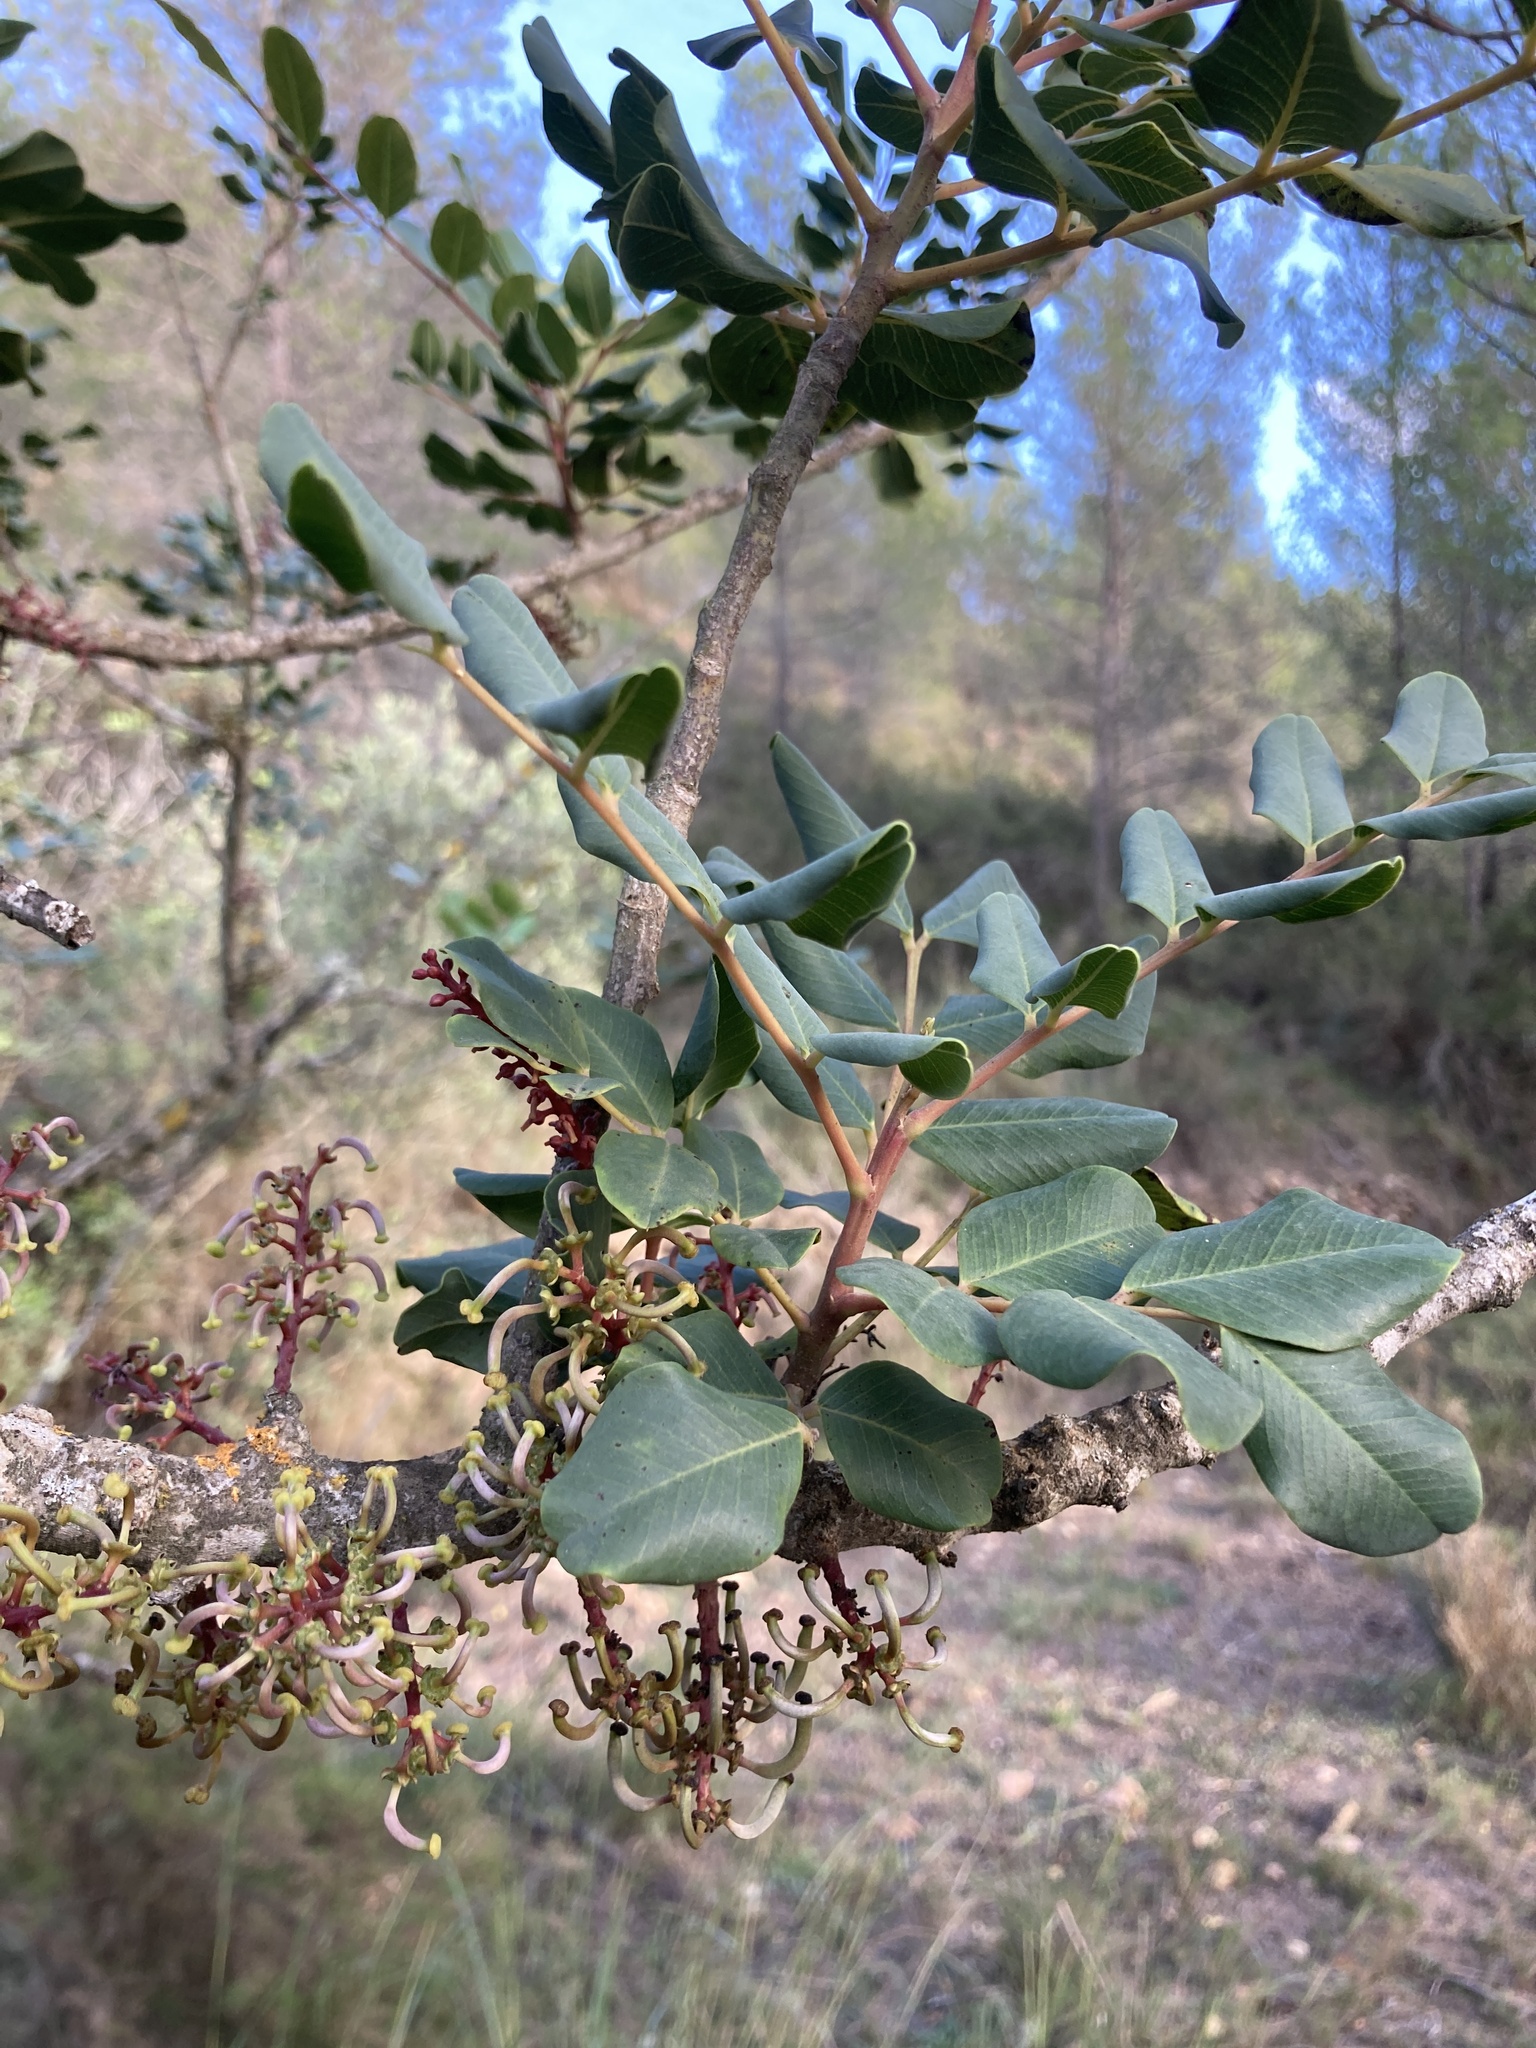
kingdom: Plantae
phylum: Tracheophyta
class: Magnoliopsida
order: Fabales
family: Fabaceae
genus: Ceratonia
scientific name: Ceratonia siliqua
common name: Carob
